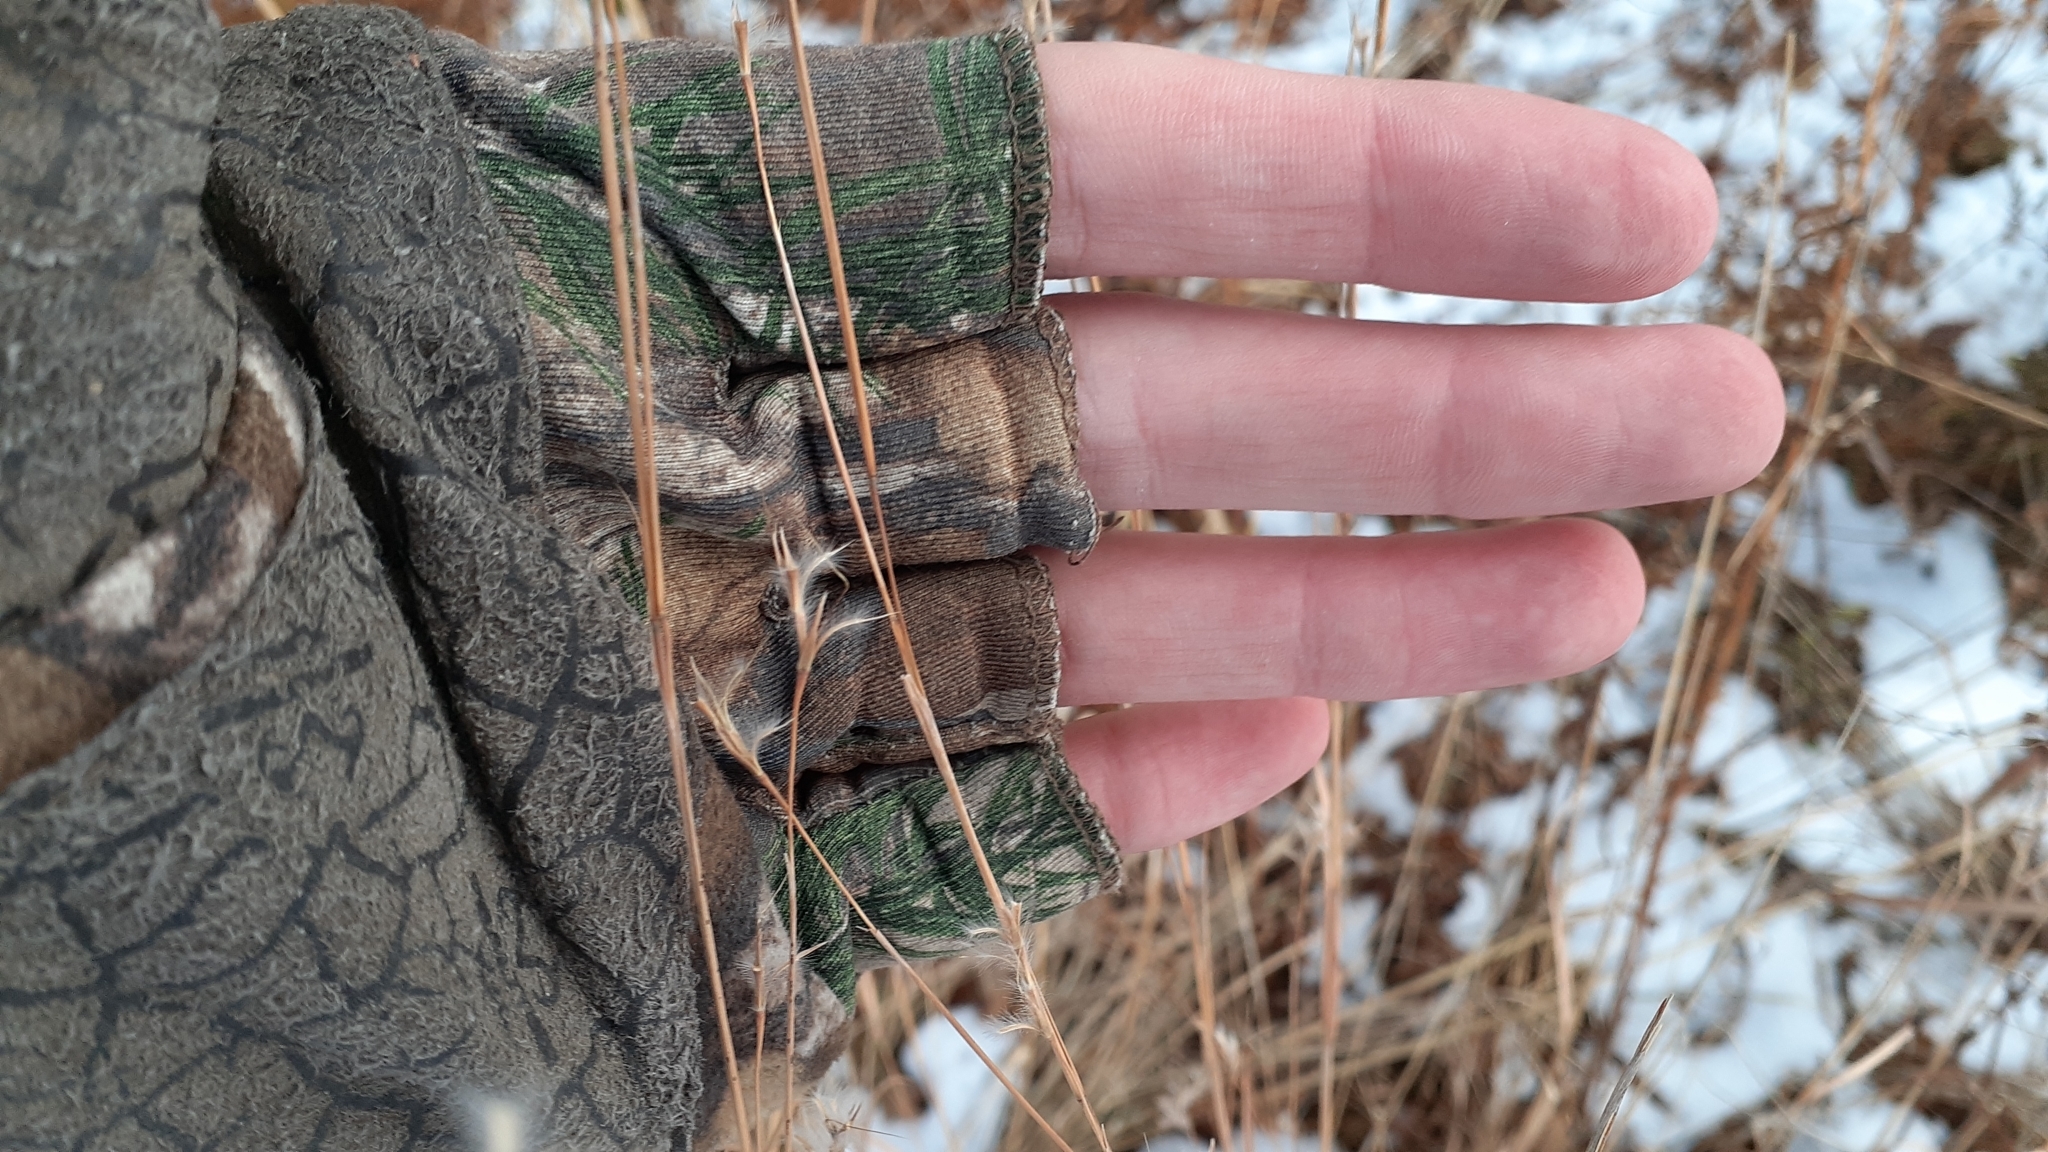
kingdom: Plantae
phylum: Tracheophyta
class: Liliopsida
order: Poales
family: Poaceae
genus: Schizachyrium
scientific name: Schizachyrium scoparium
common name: Little bluestem
